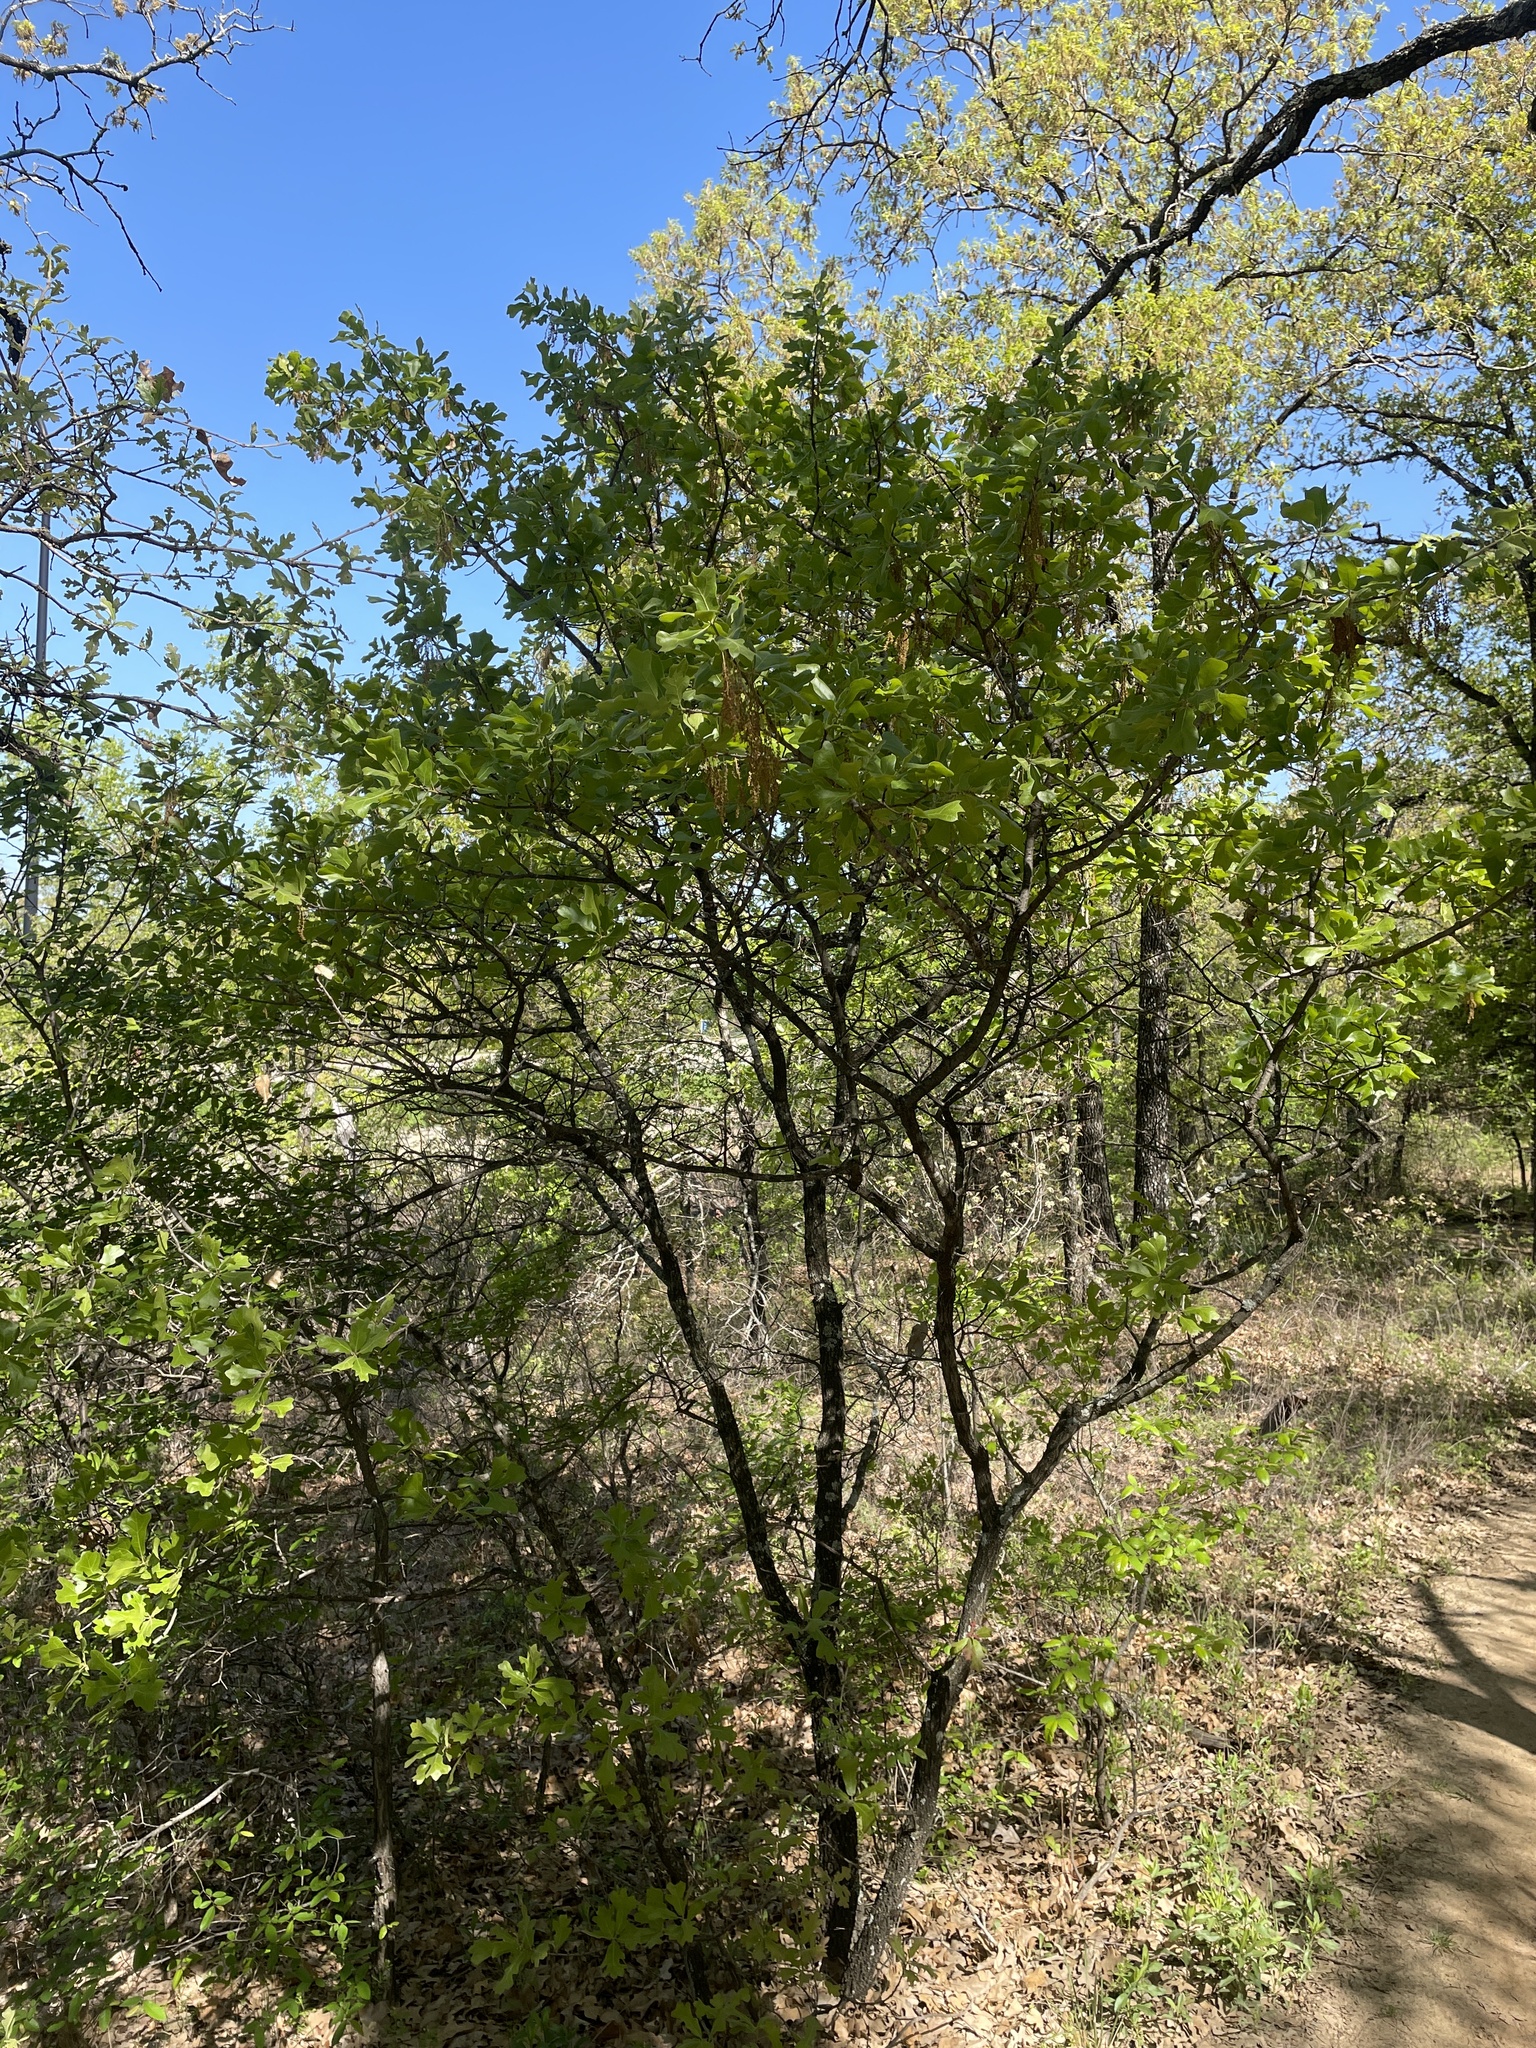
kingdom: Plantae
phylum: Tracheophyta
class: Magnoliopsida
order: Fagales
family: Fagaceae
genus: Quercus
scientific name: Quercus marilandica
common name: Blackjack oak
